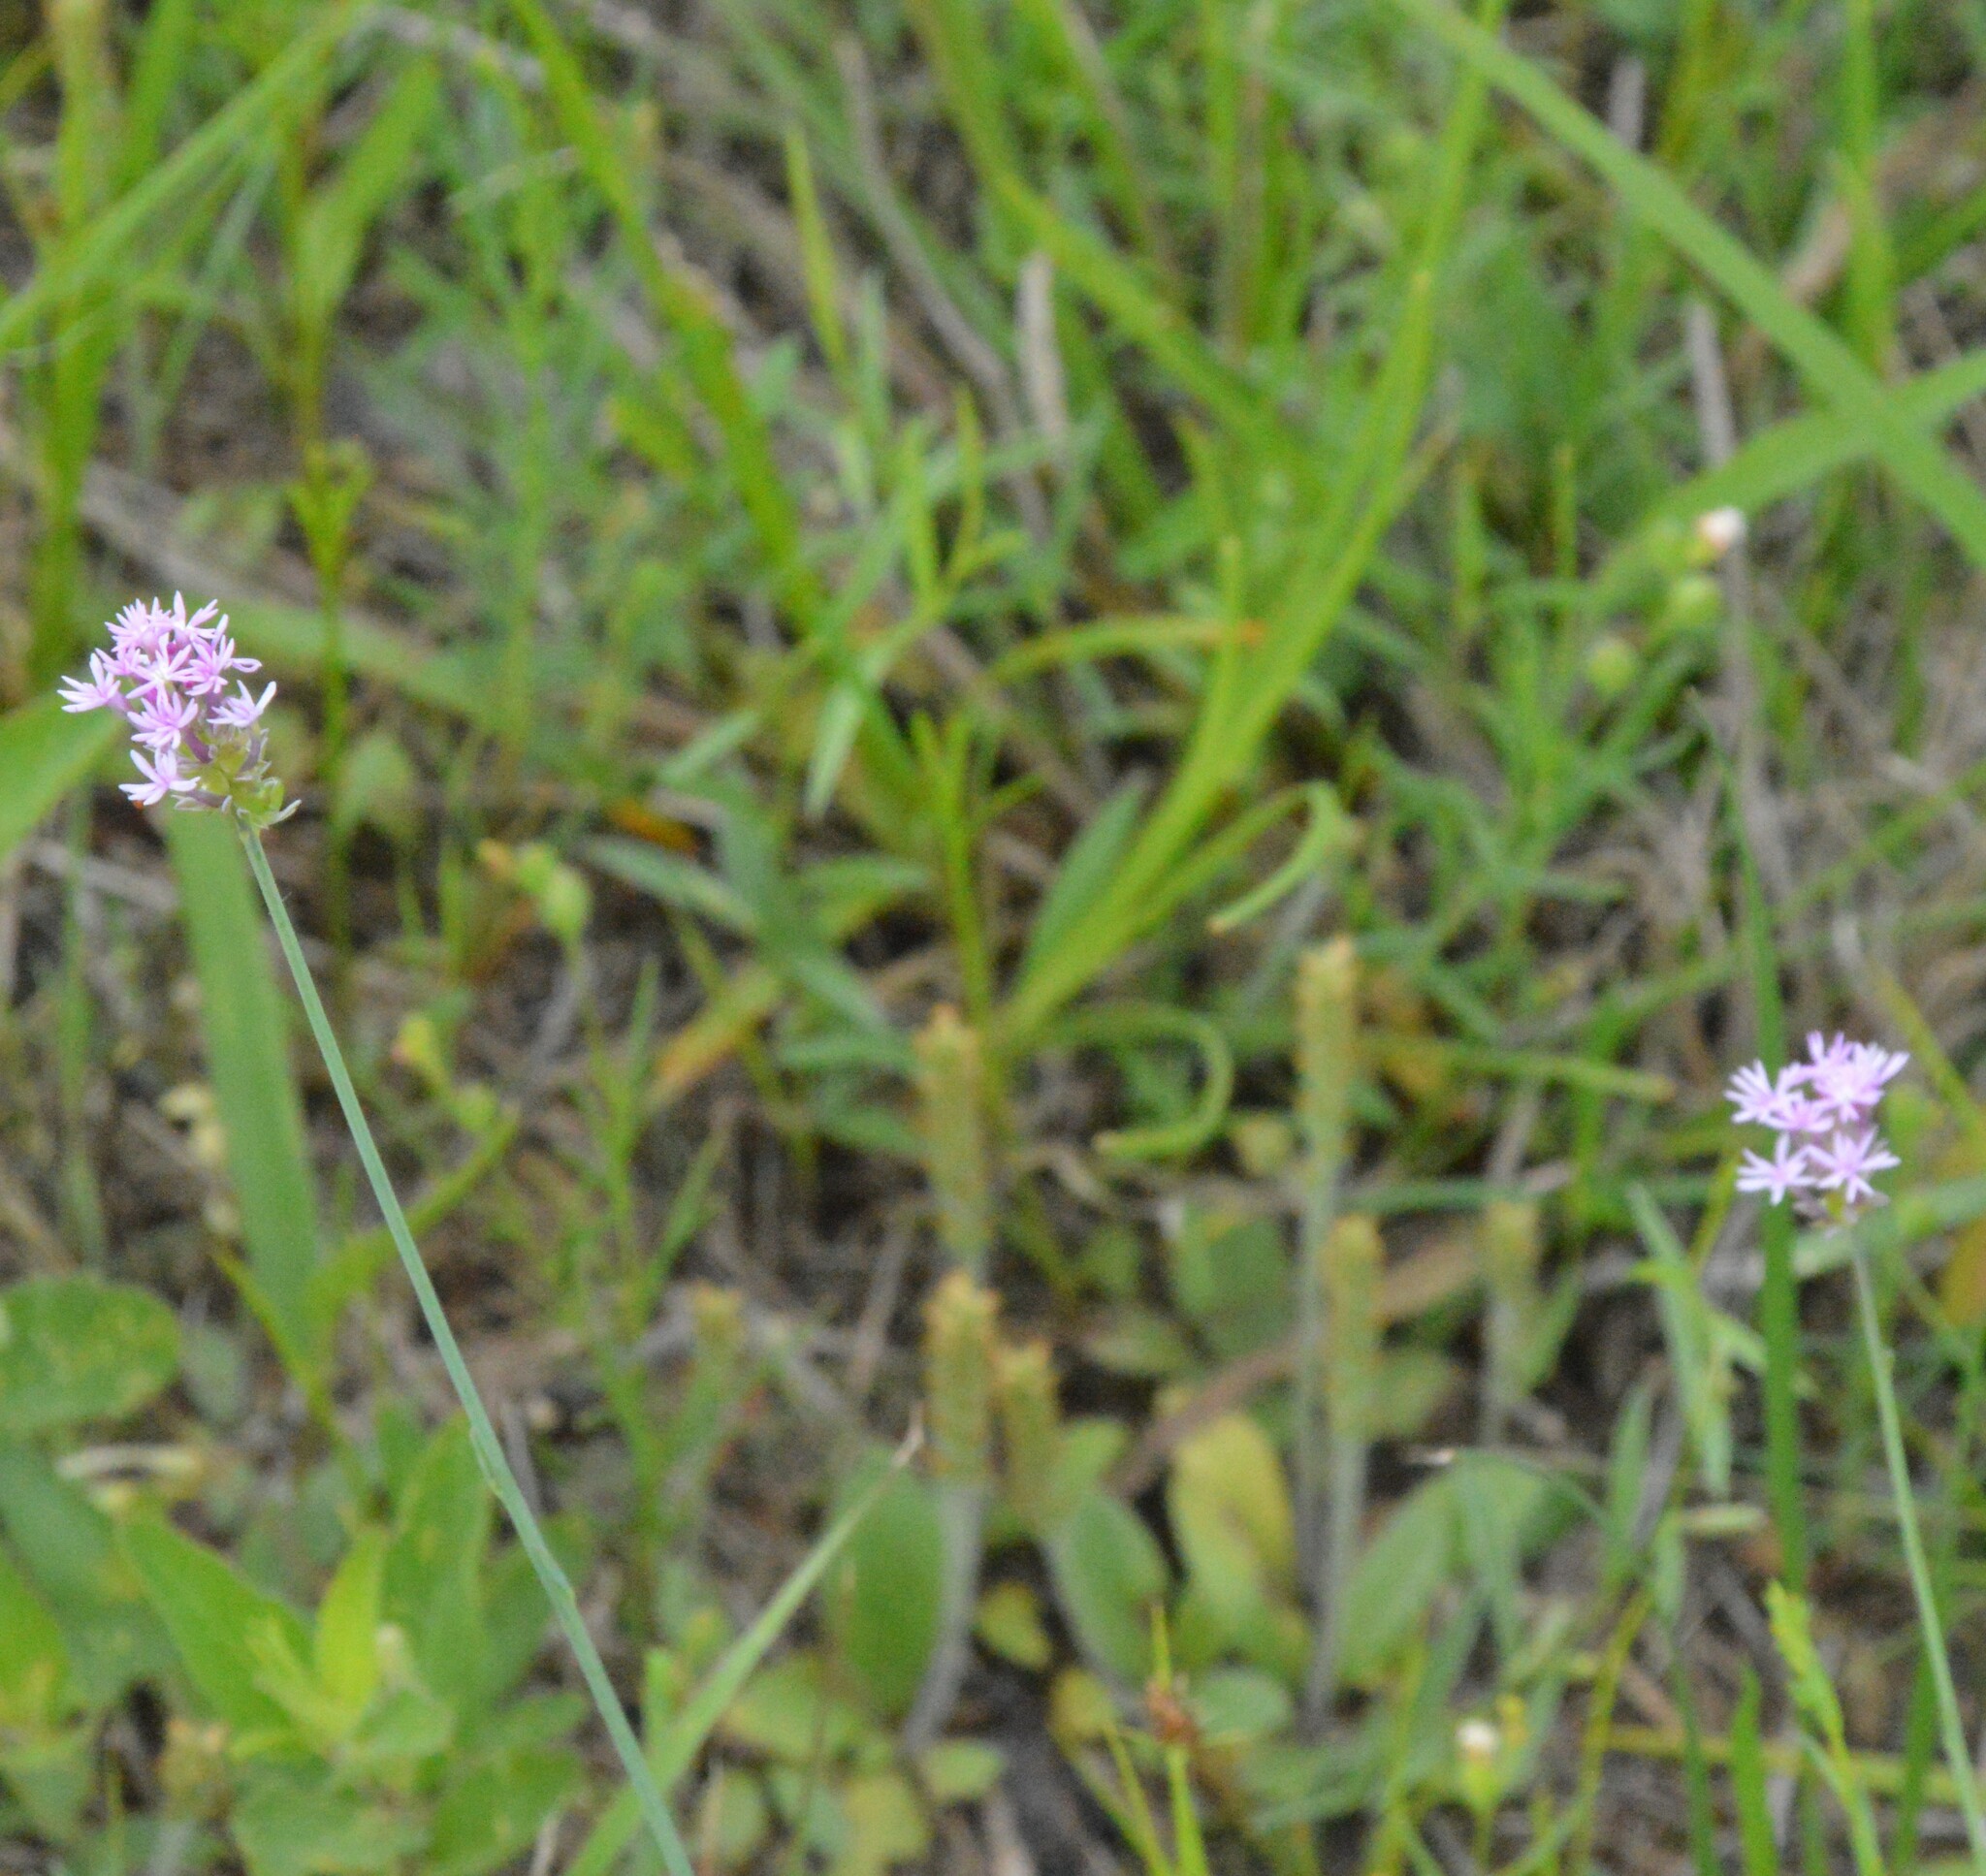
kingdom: Plantae
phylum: Tracheophyta
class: Magnoliopsida
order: Fabales
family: Polygalaceae
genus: Polygala
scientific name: Polygala incarnata
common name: Pink milkwort
